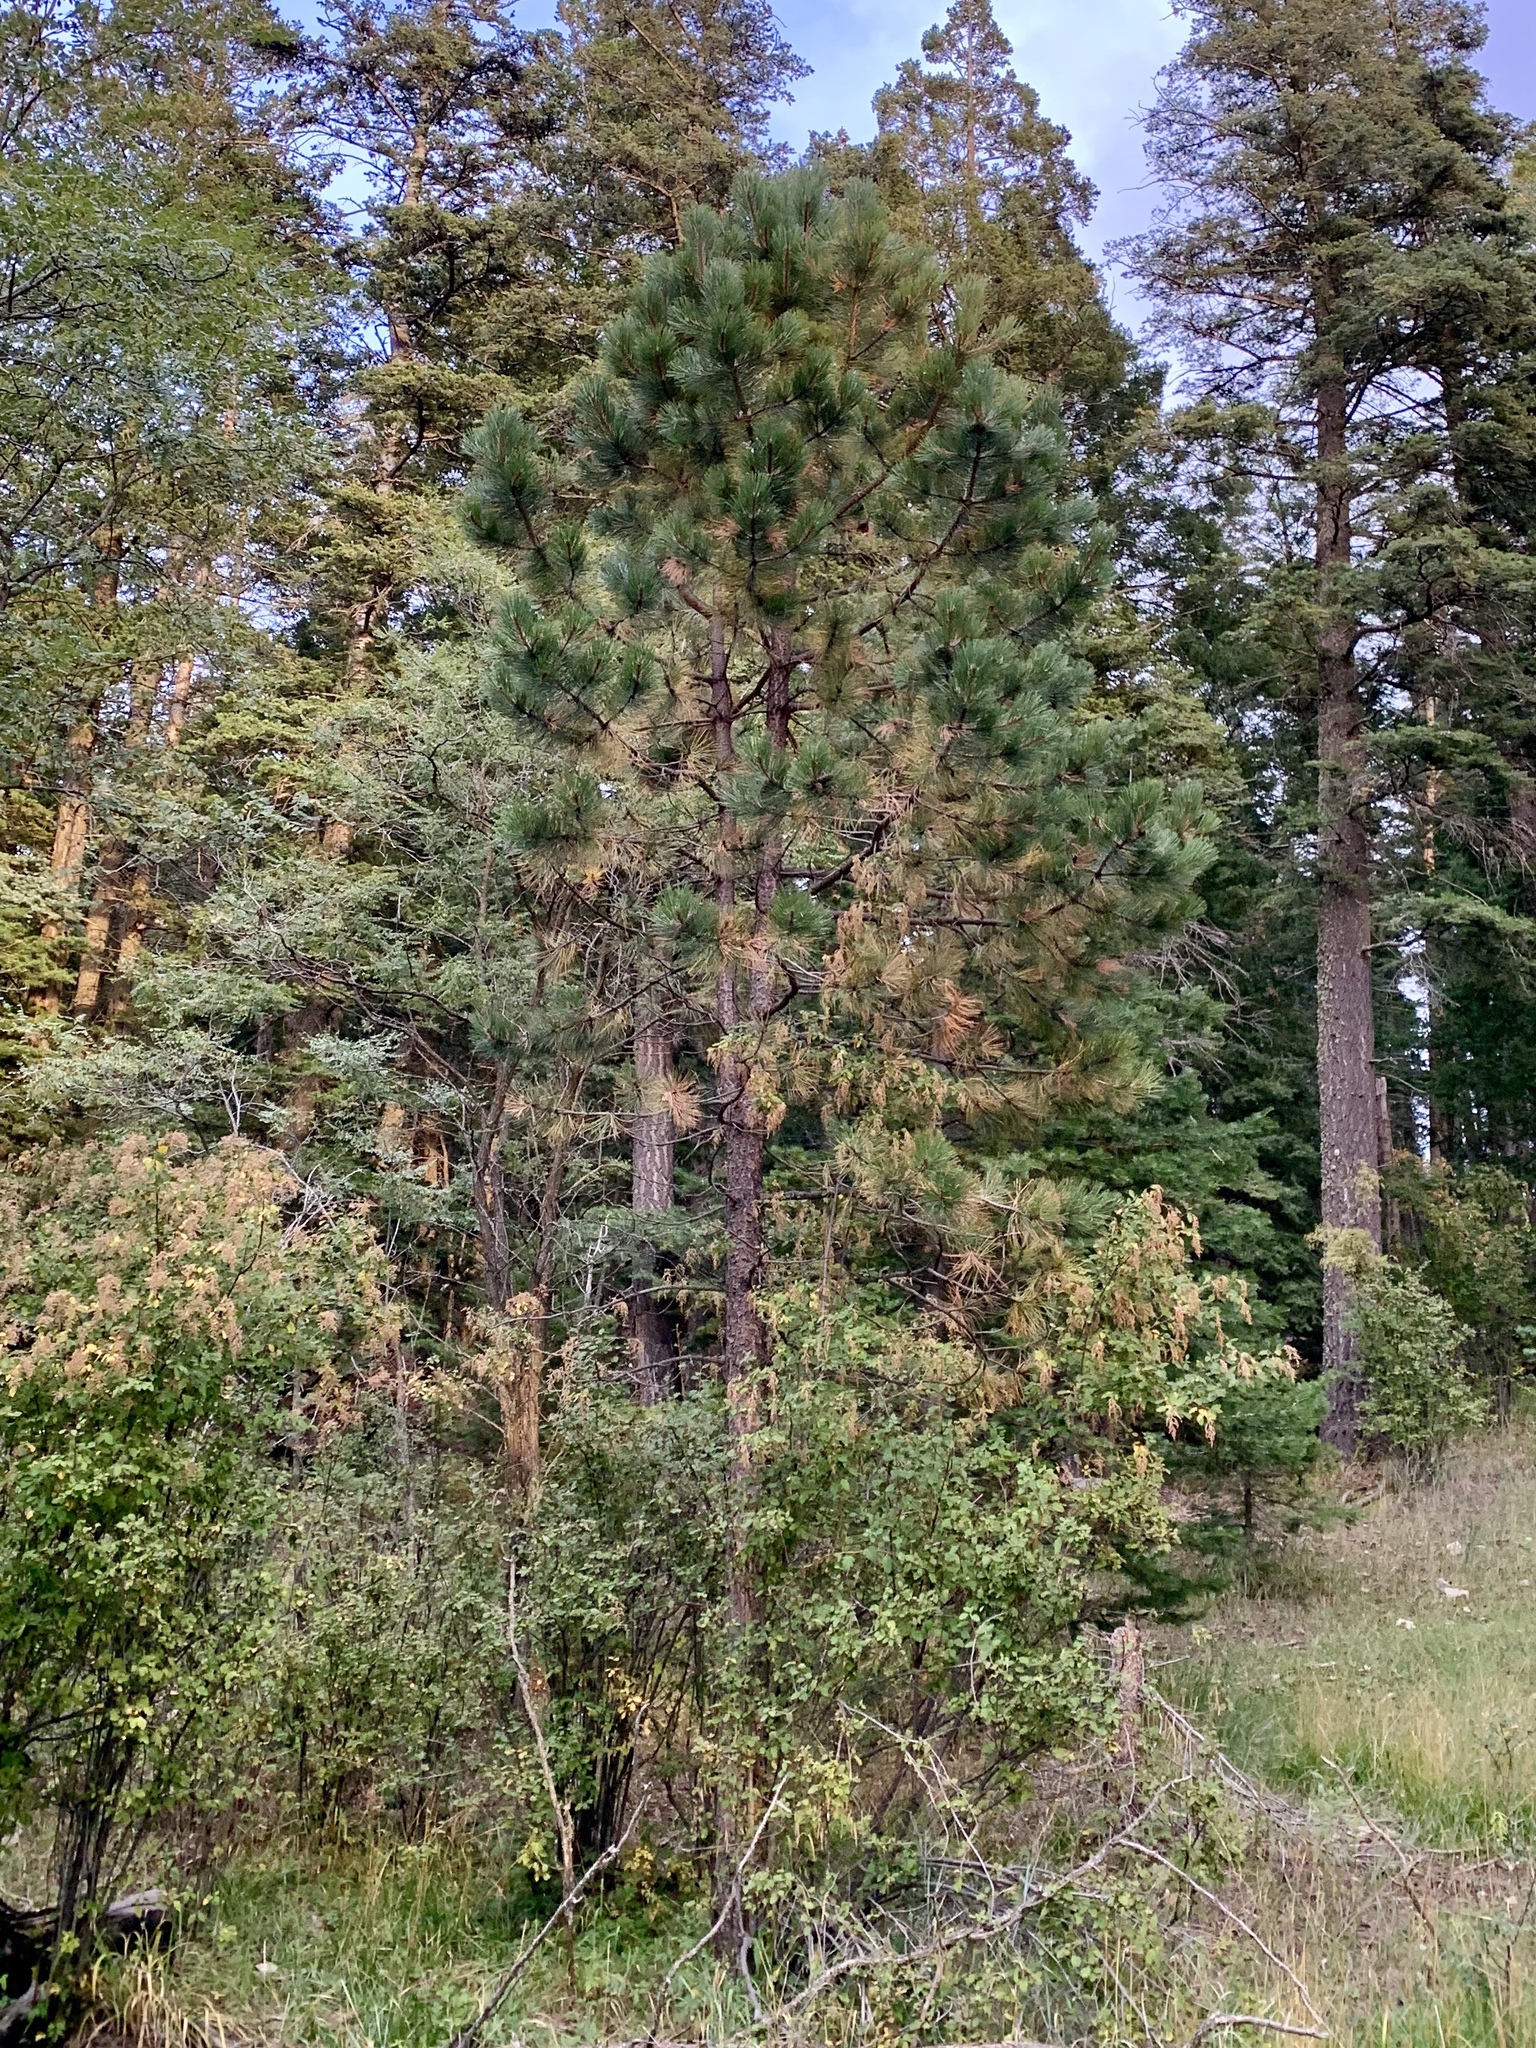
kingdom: Plantae
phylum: Tracheophyta
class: Pinopsida
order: Pinales
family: Pinaceae
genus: Pinus
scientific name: Pinus ponderosa
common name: Western yellow-pine
